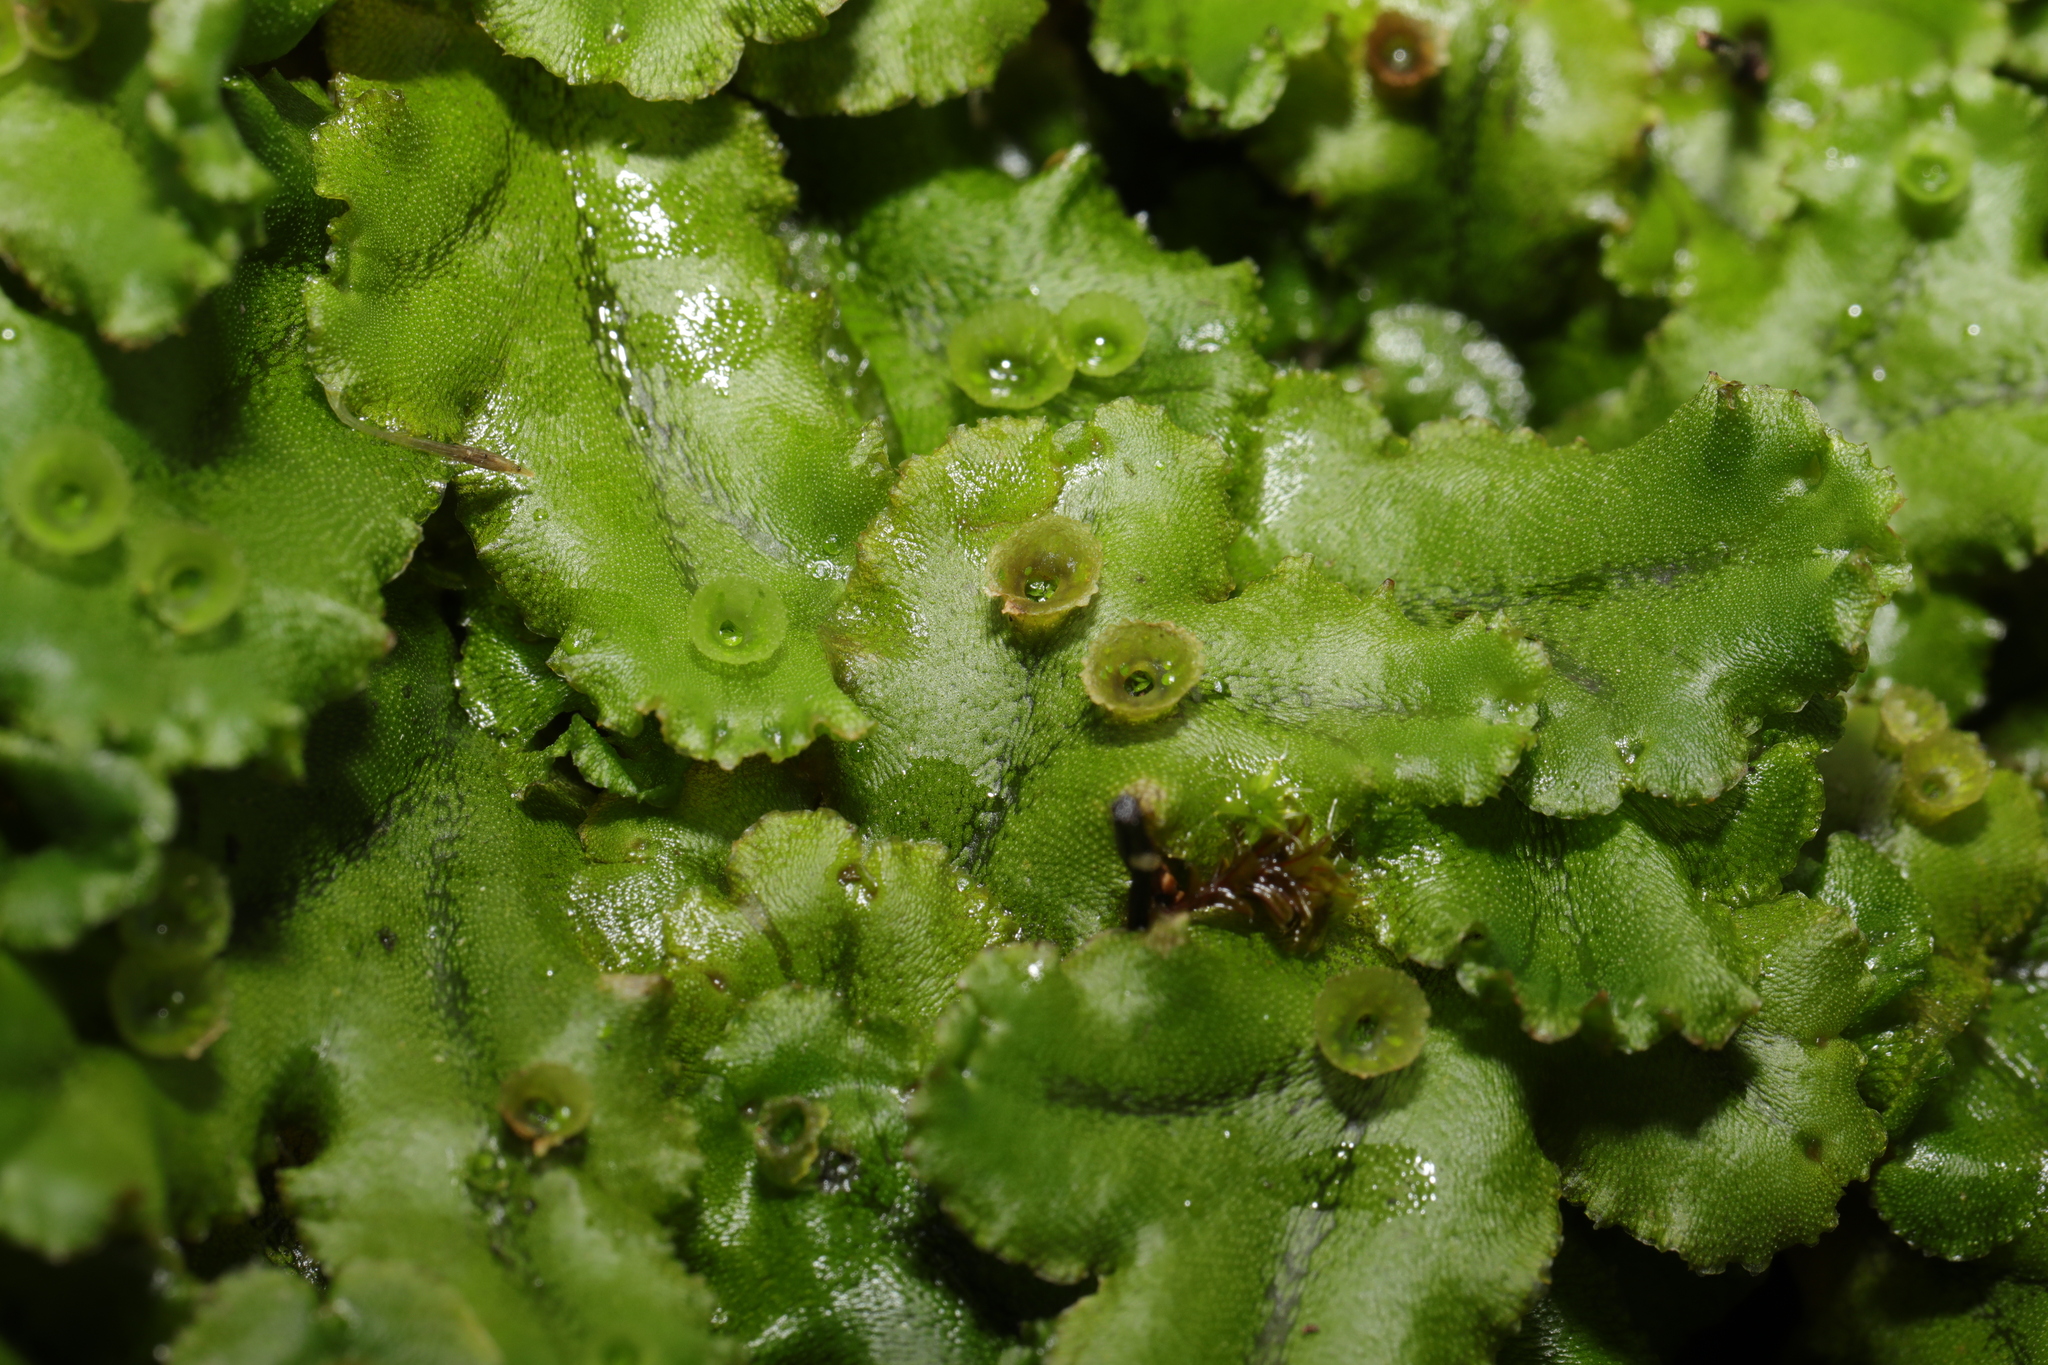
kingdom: Plantae
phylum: Marchantiophyta
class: Marchantiopsida
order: Marchantiales
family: Marchantiaceae
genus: Marchantia
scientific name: Marchantia polymorpha
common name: Common liverwort
